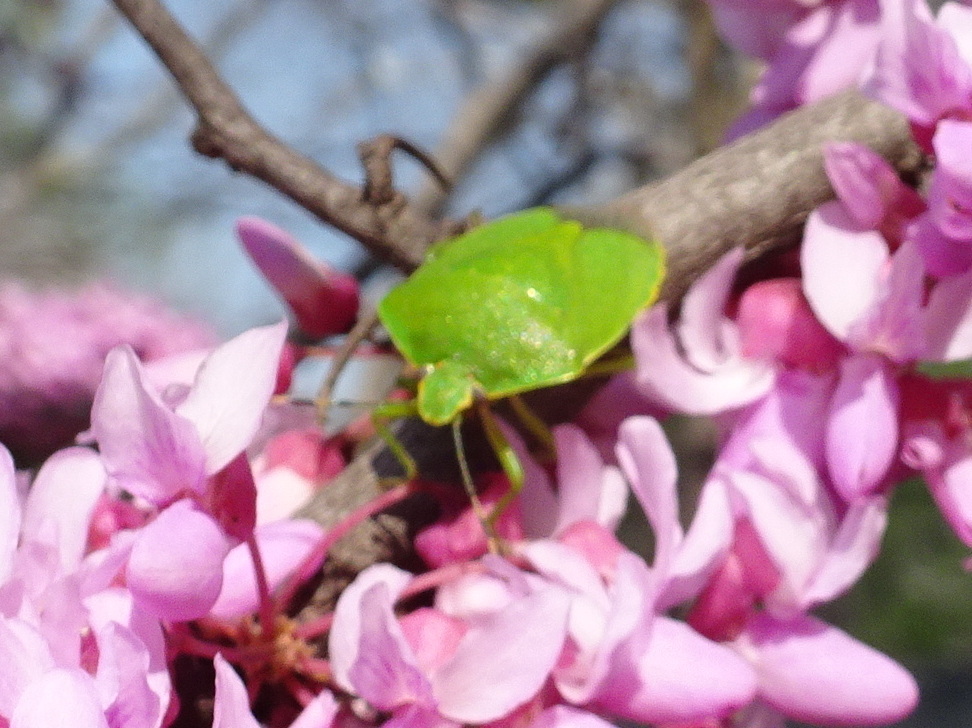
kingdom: Animalia
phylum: Arthropoda
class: Insecta
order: Hemiptera
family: Pentatomidae
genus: Chinavia
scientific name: Chinavia hilaris
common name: Green stink bug
